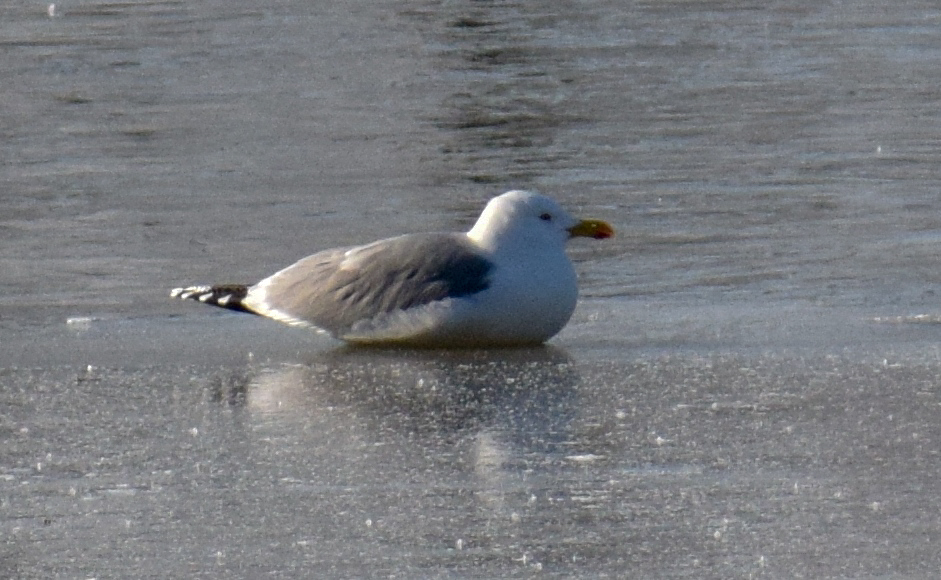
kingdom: Animalia
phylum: Chordata
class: Aves
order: Charadriiformes
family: Laridae
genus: Larus
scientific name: Larus michahellis
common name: Yellow-legged gull
